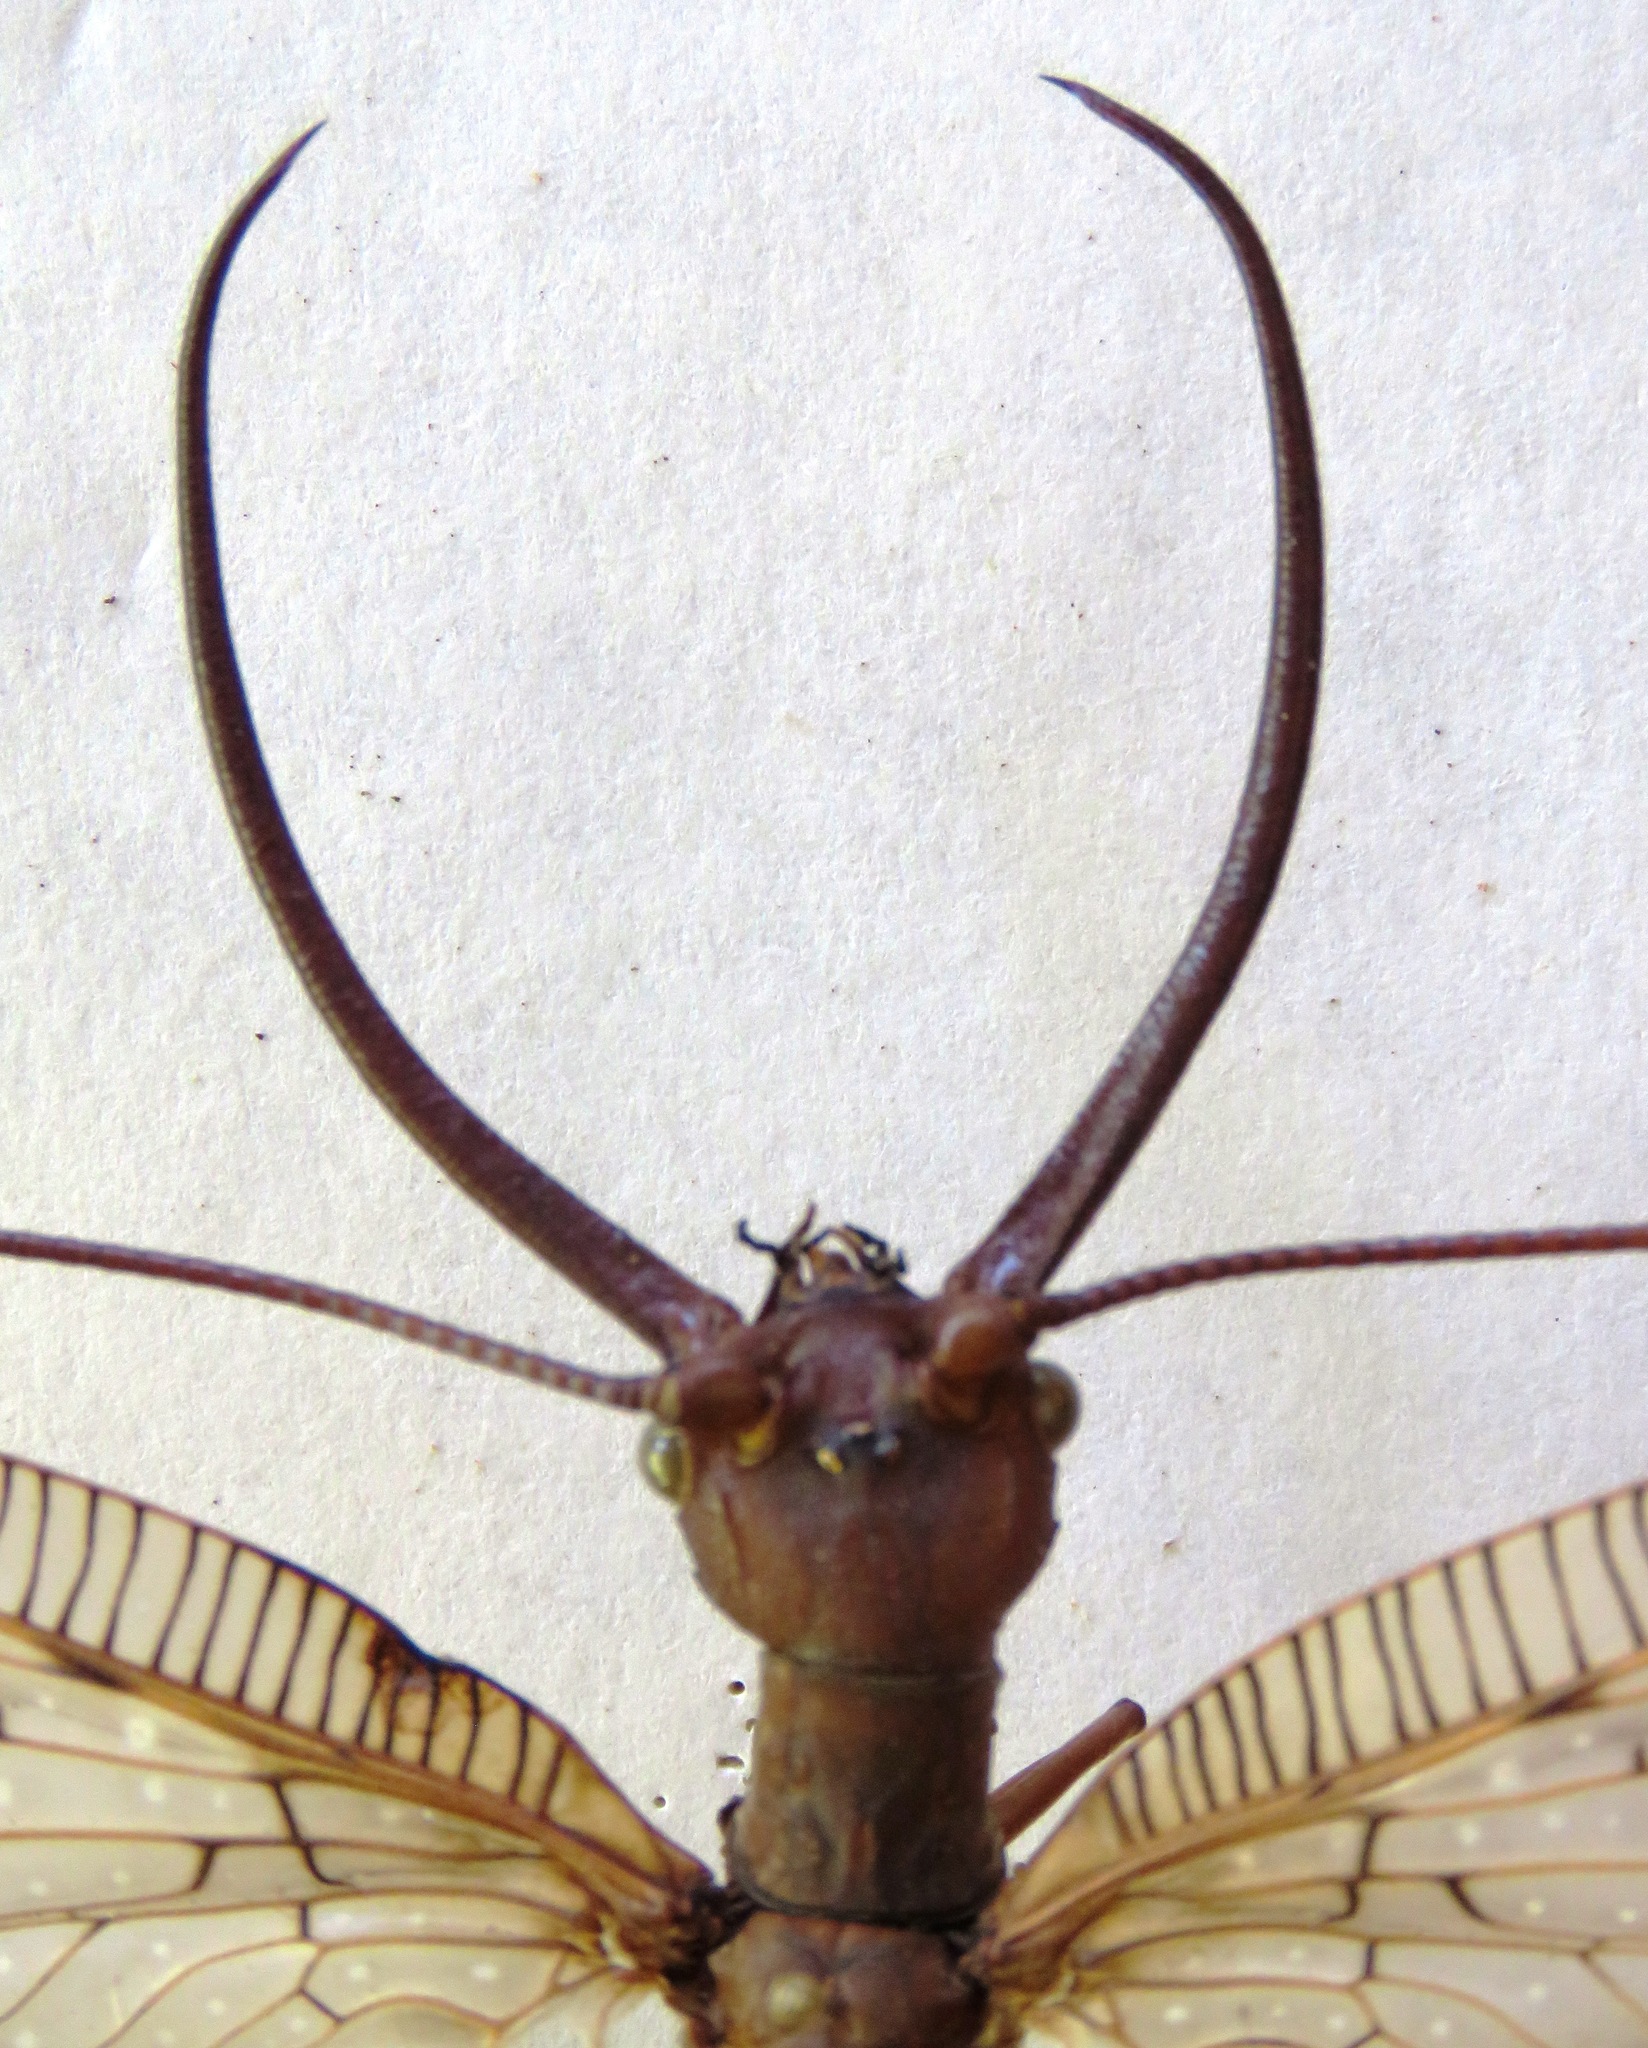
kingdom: Animalia
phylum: Arthropoda
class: Insecta
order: Megaloptera
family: Corydalidae
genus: Corydalus
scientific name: Corydalus magnus
